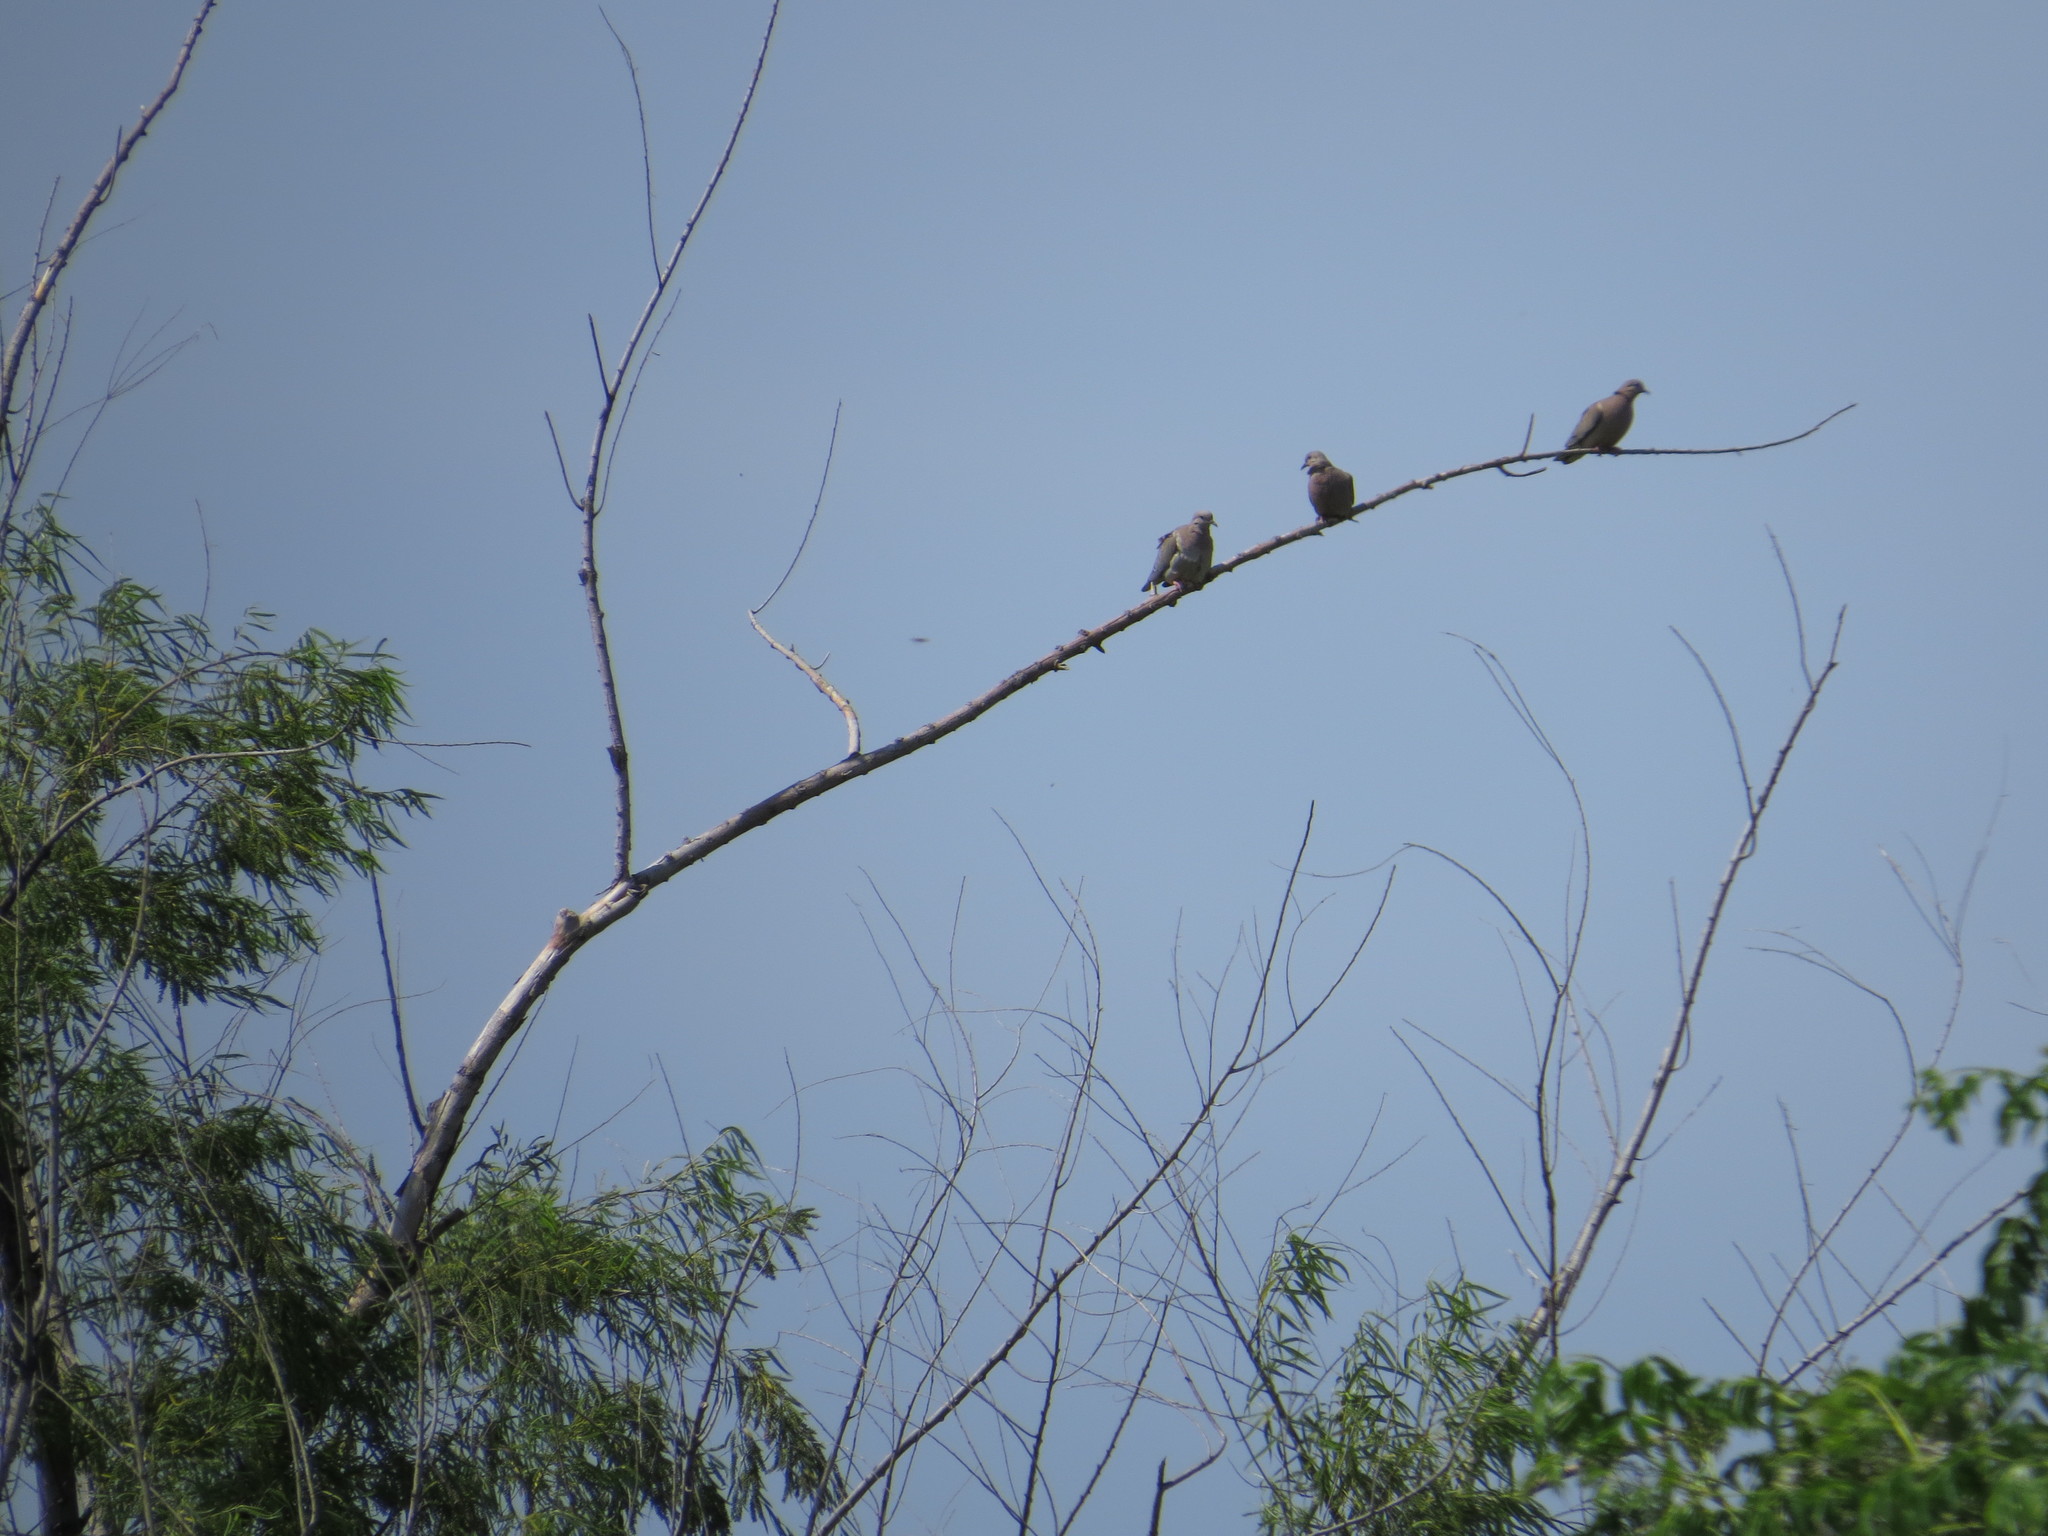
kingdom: Animalia
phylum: Chordata
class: Aves
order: Columbiformes
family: Columbidae
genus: Zenaida
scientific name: Zenaida auriculata
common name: Eared dove
